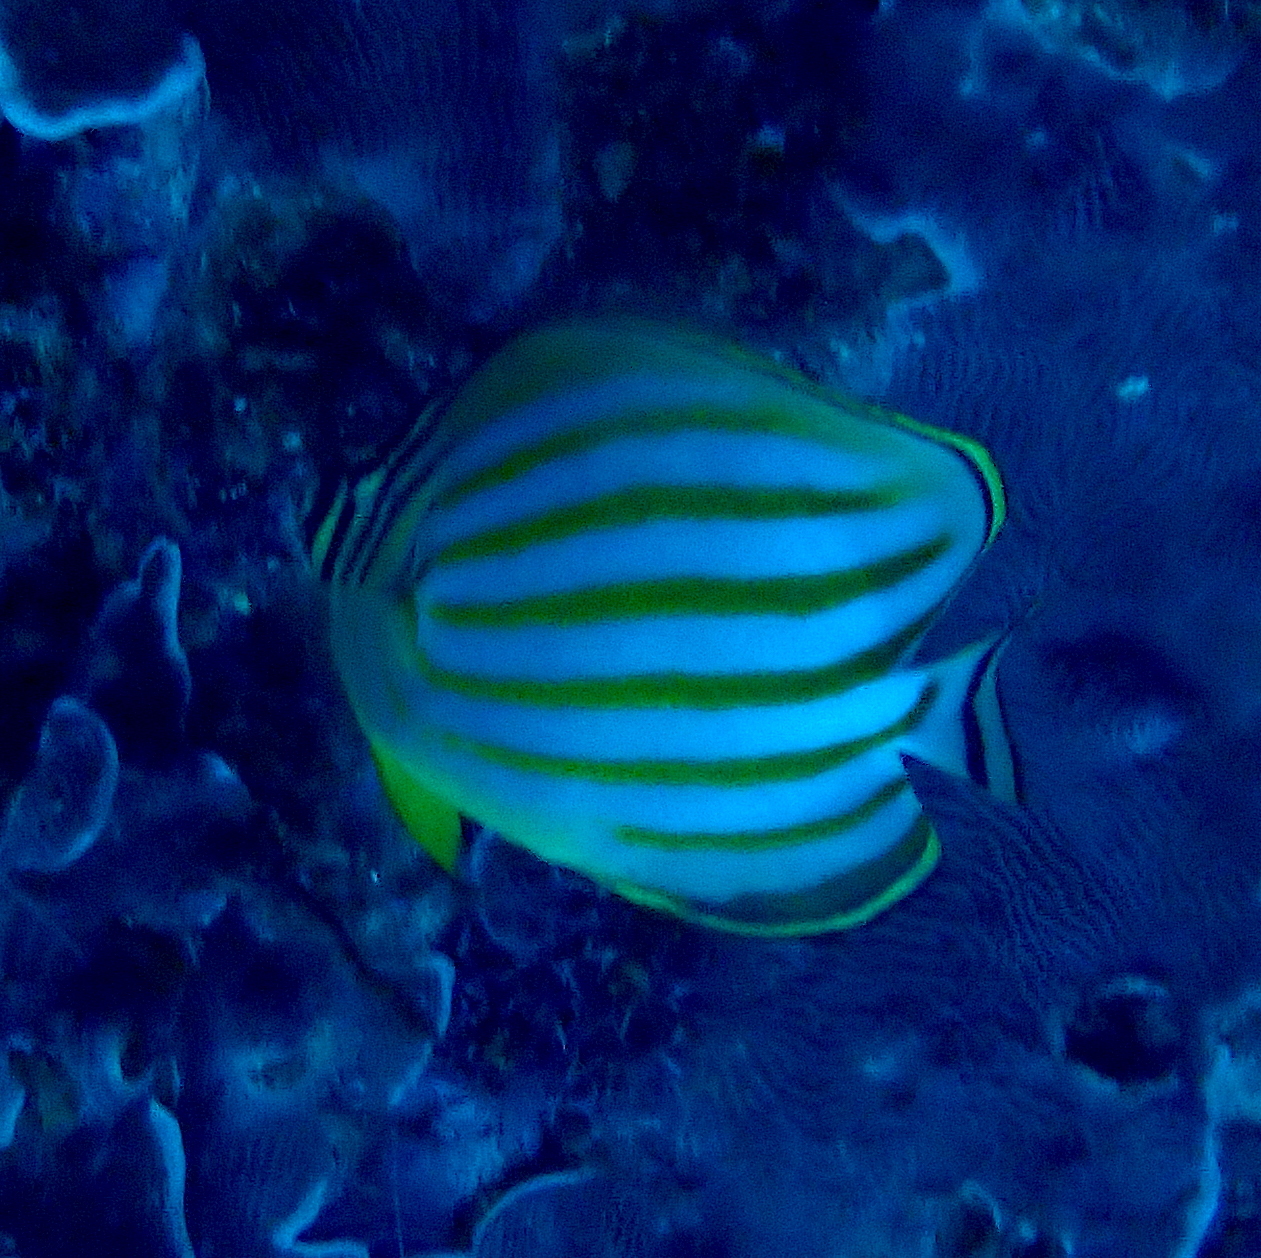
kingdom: Animalia
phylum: Chordata
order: Perciformes
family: Chaetodontidae
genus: Chaetodon
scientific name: Chaetodon ornatissimus
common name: Ornate butterflyfish
